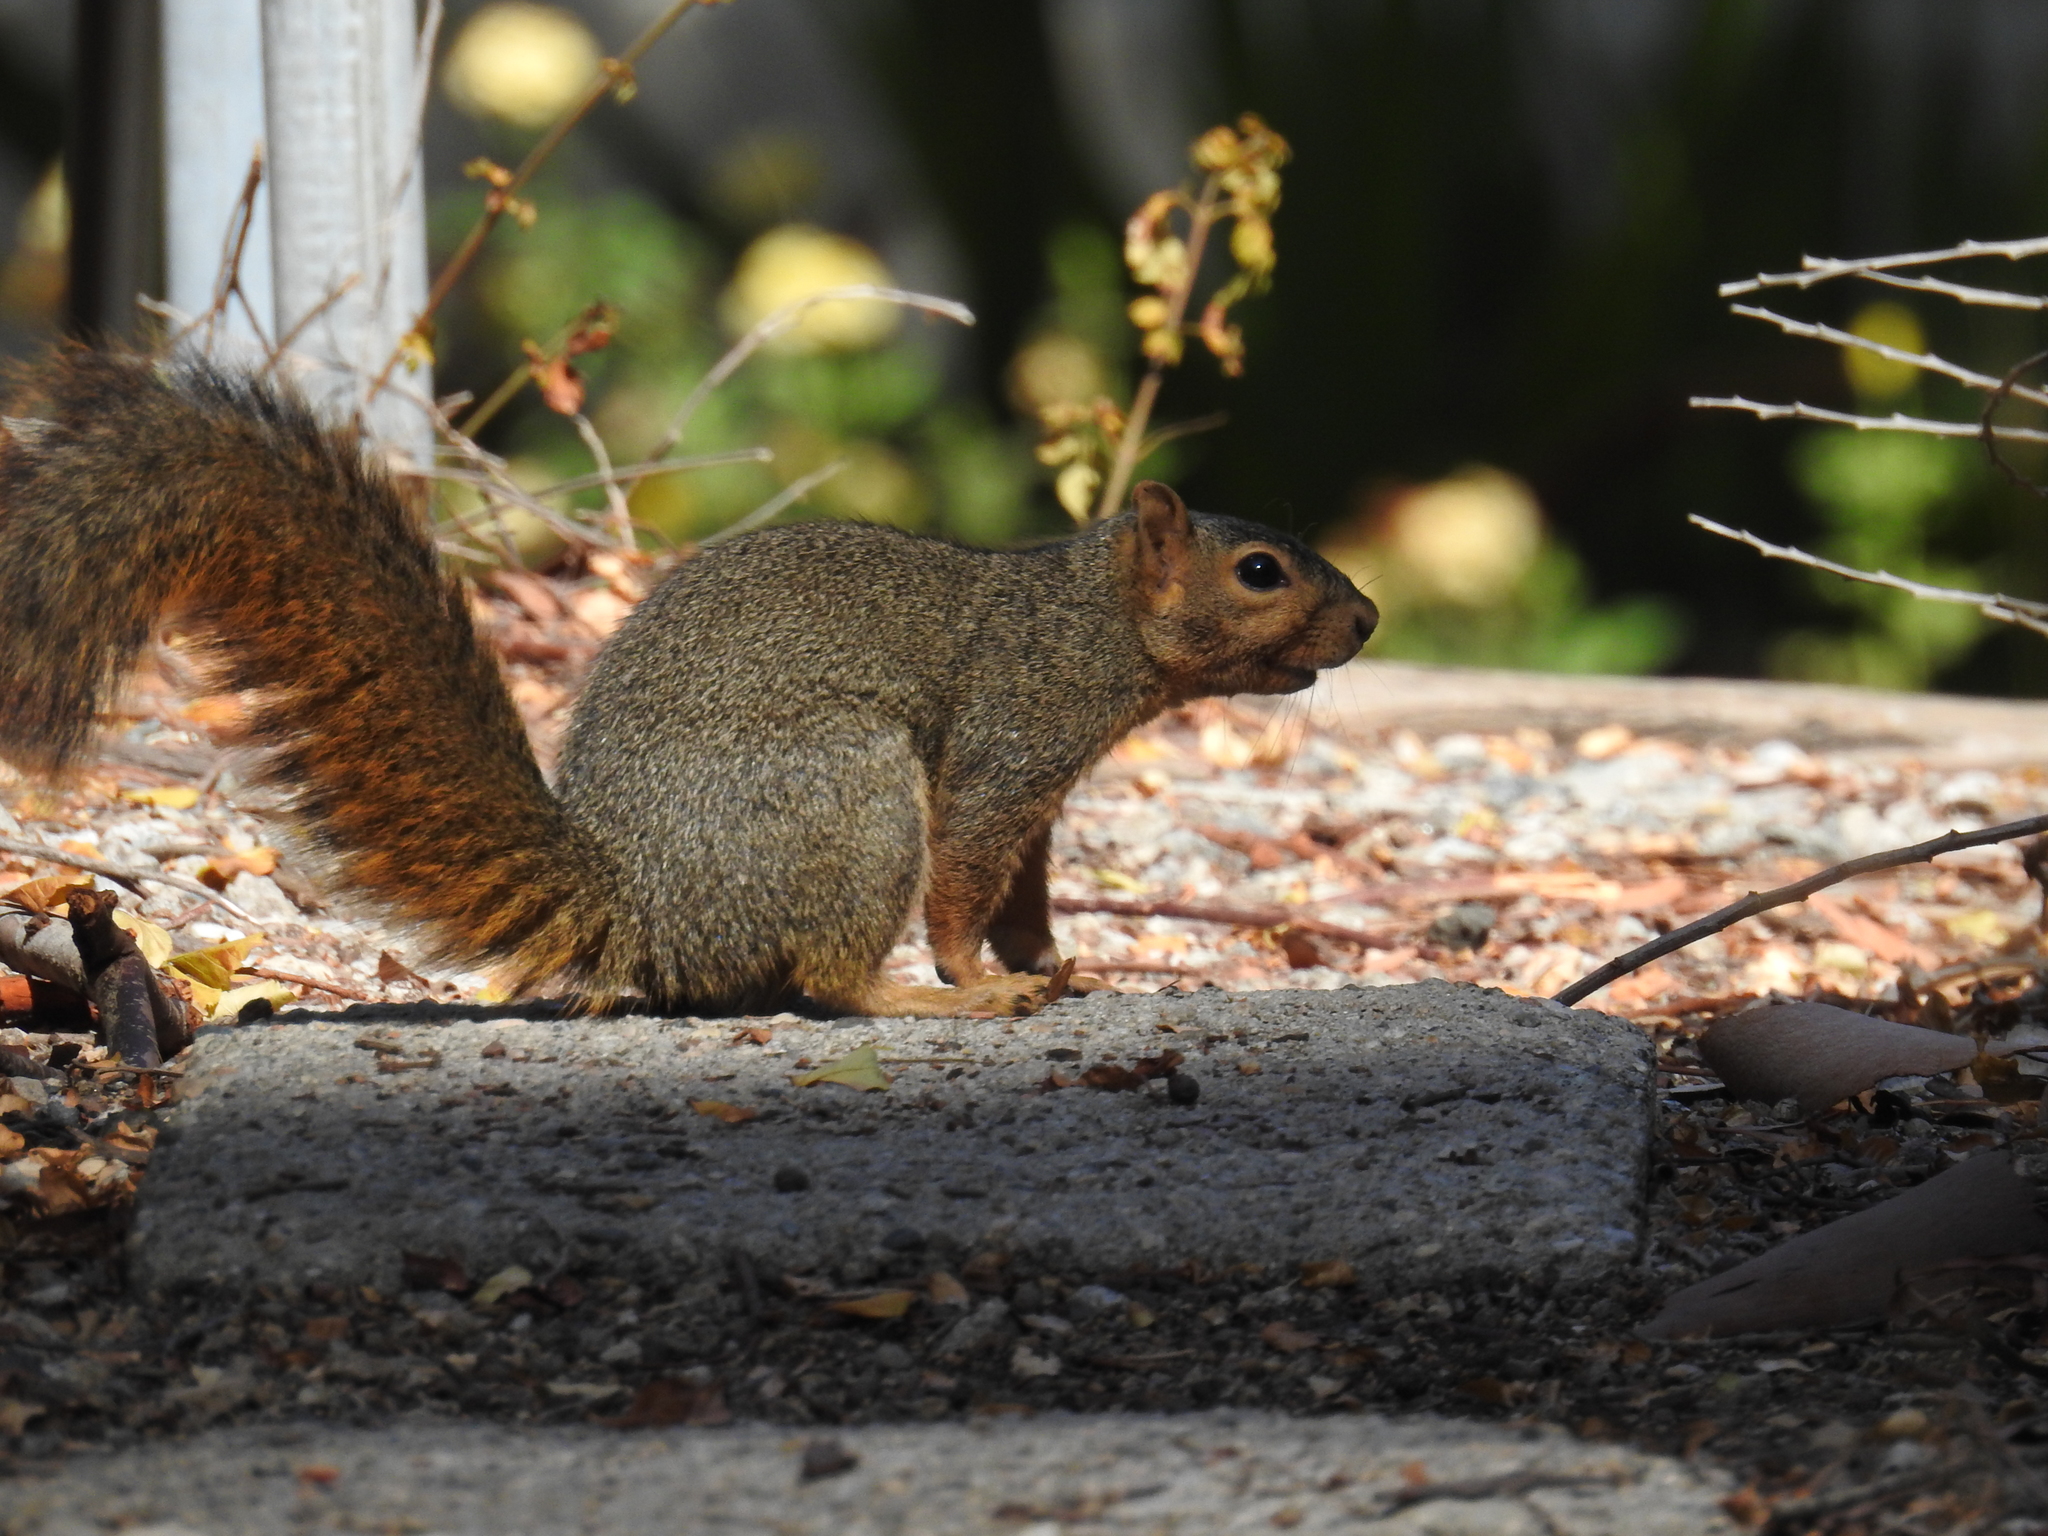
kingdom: Animalia
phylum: Chordata
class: Mammalia
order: Rodentia
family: Sciuridae
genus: Sciurus
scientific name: Sciurus niger
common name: Fox squirrel
